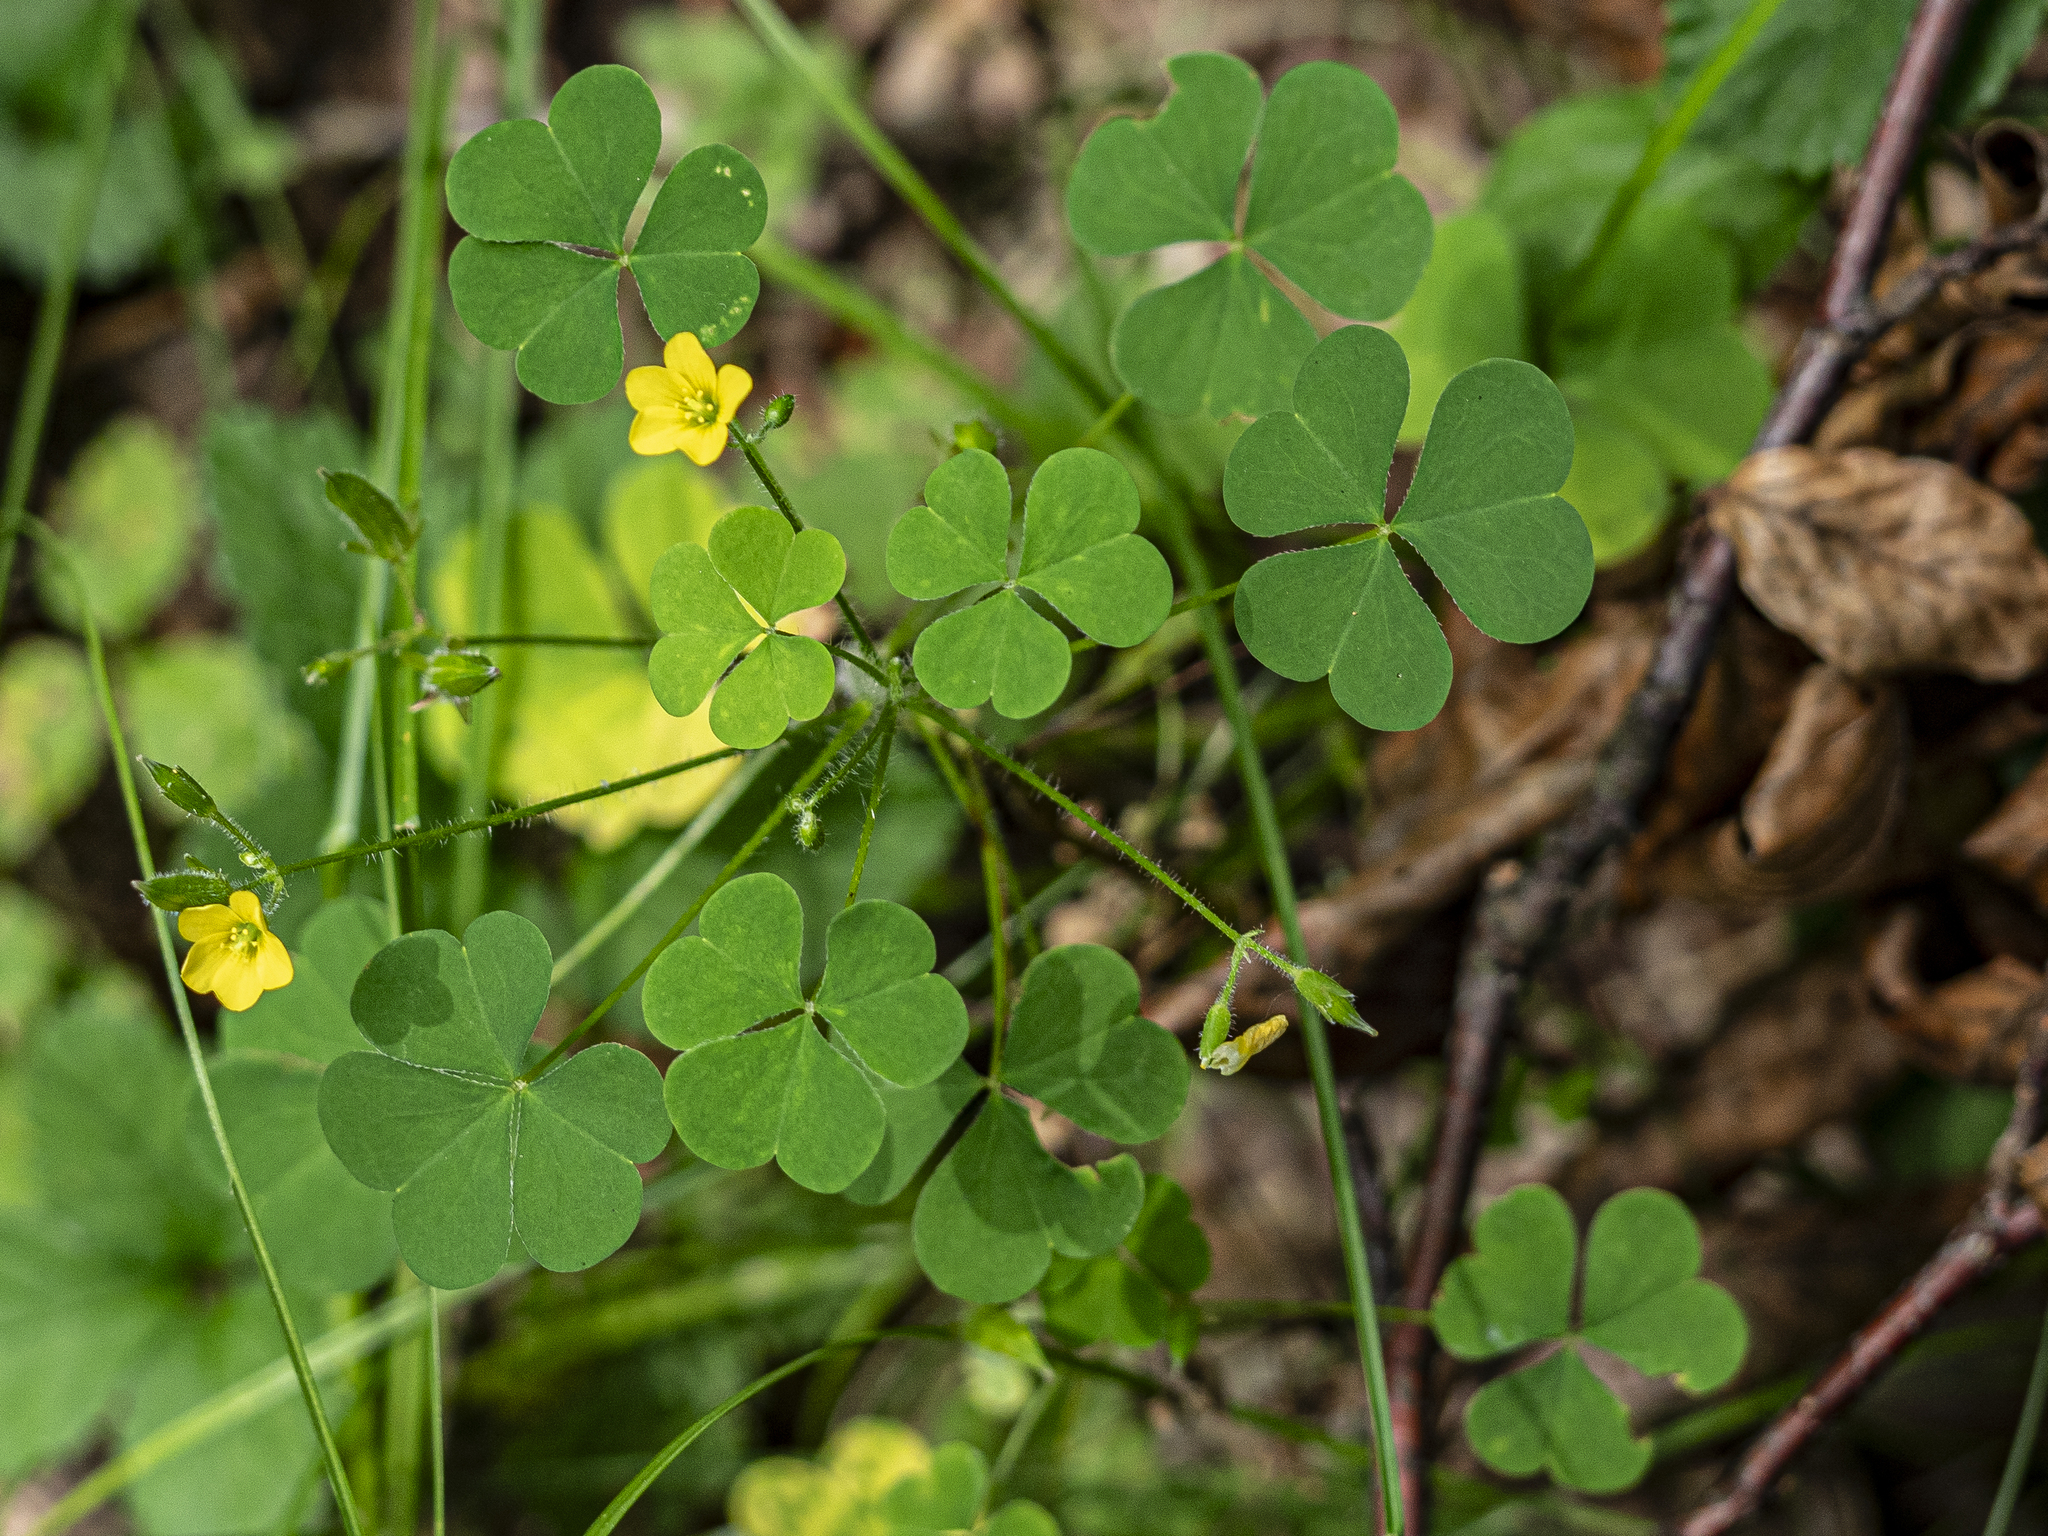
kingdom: Plantae
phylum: Tracheophyta
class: Magnoliopsida
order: Oxalidales
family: Oxalidaceae
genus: Oxalis
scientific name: Oxalis stricta
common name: Upright yellow-sorrel
